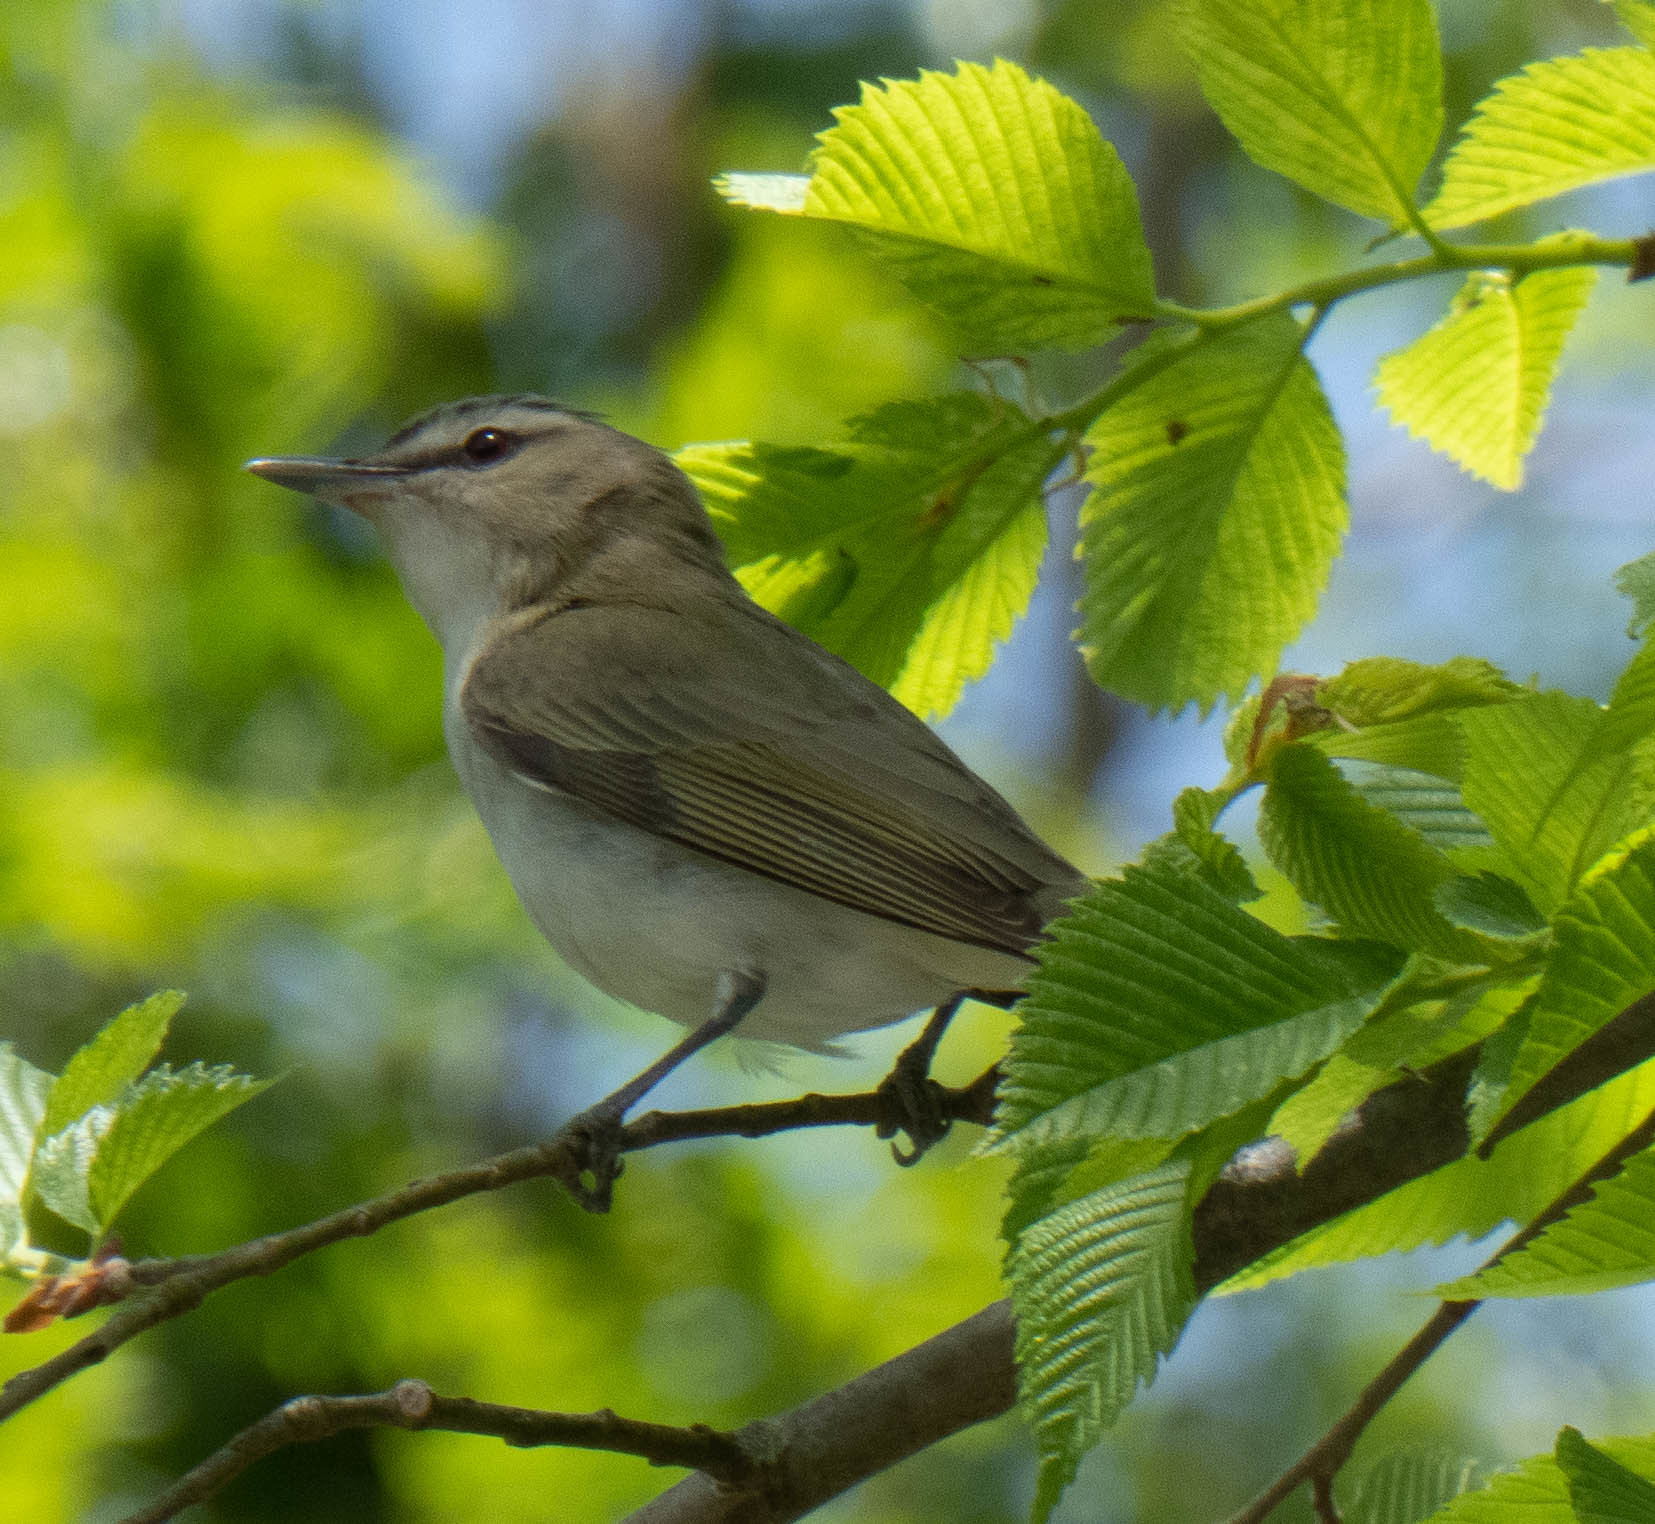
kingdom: Animalia
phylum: Chordata
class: Aves
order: Passeriformes
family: Vireonidae
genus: Vireo
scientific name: Vireo olivaceus
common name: Red-eyed vireo
